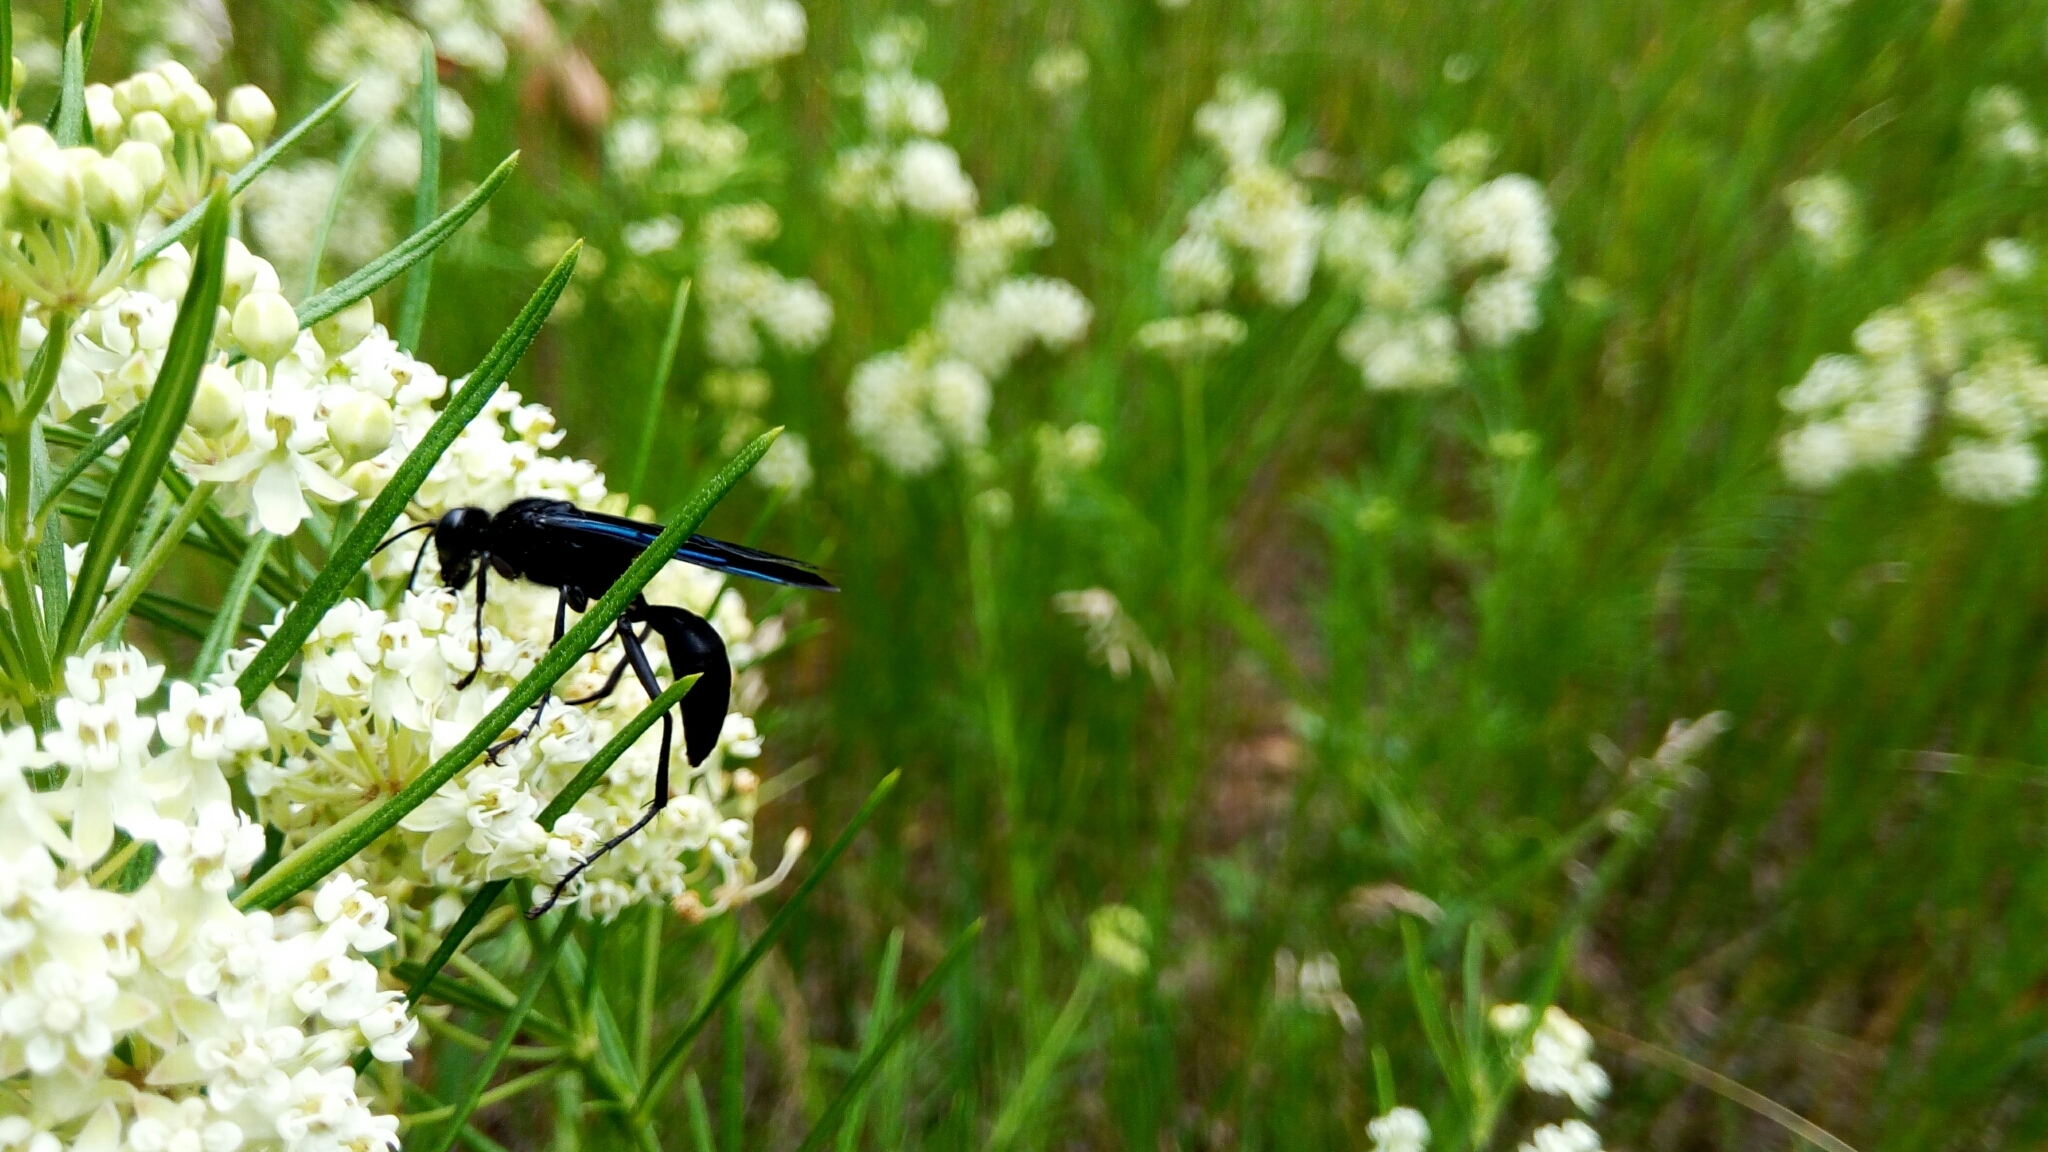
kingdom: Animalia
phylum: Arthropoda
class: Insecta
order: Hymenoptera
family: Sphecidae
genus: Sphex
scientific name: Sphex pensylvanicus
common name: Great black digger wasp
